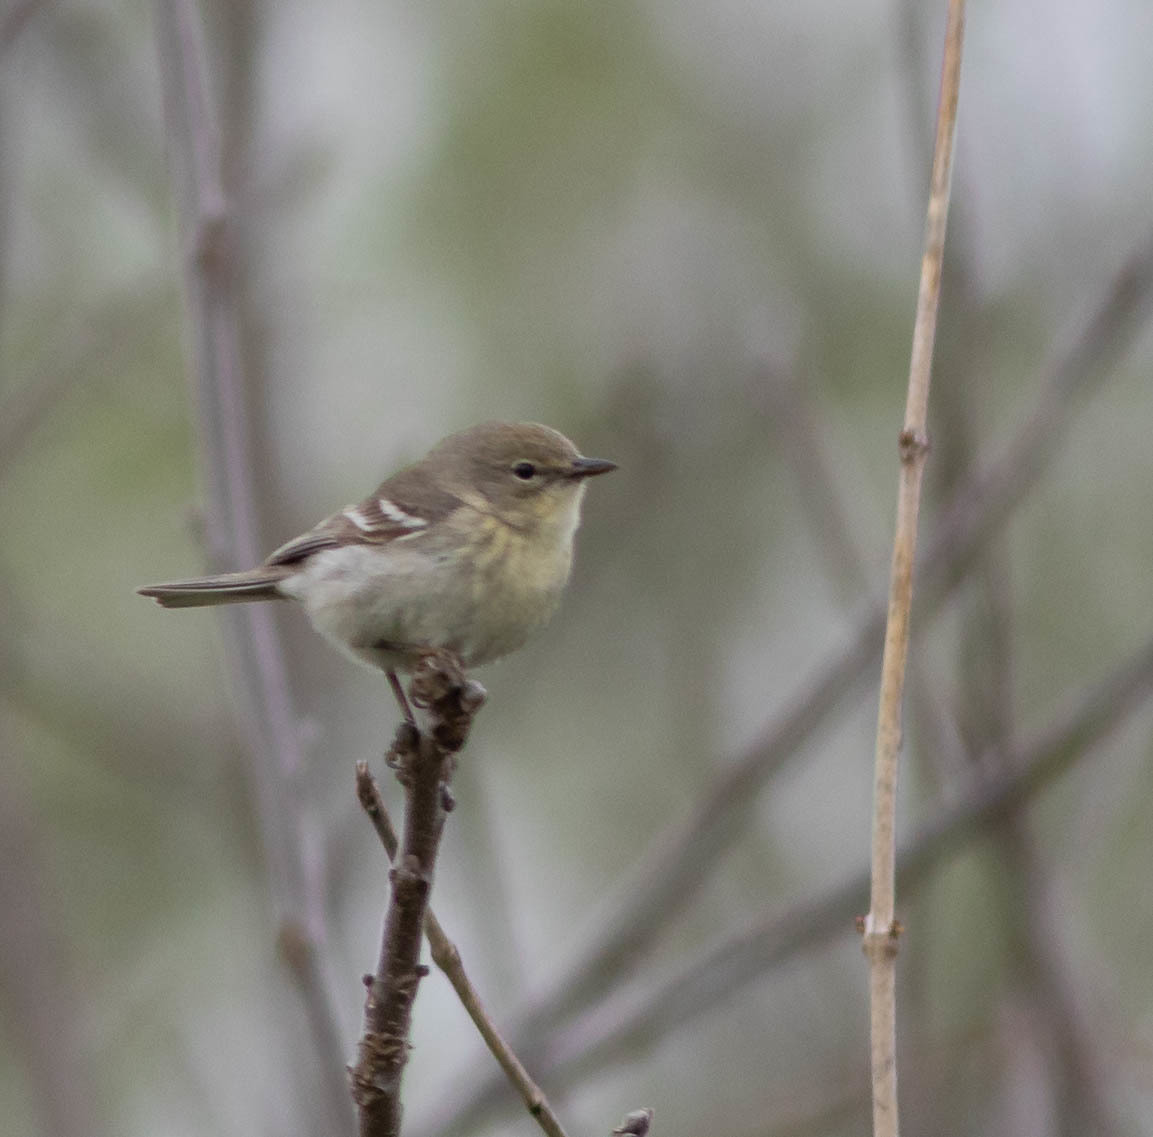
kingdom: Animalia
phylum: Chordata
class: Aves
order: Passeriformes
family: Parulidae
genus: Setophaga
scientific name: Setophaga pinus
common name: Pine warbler
